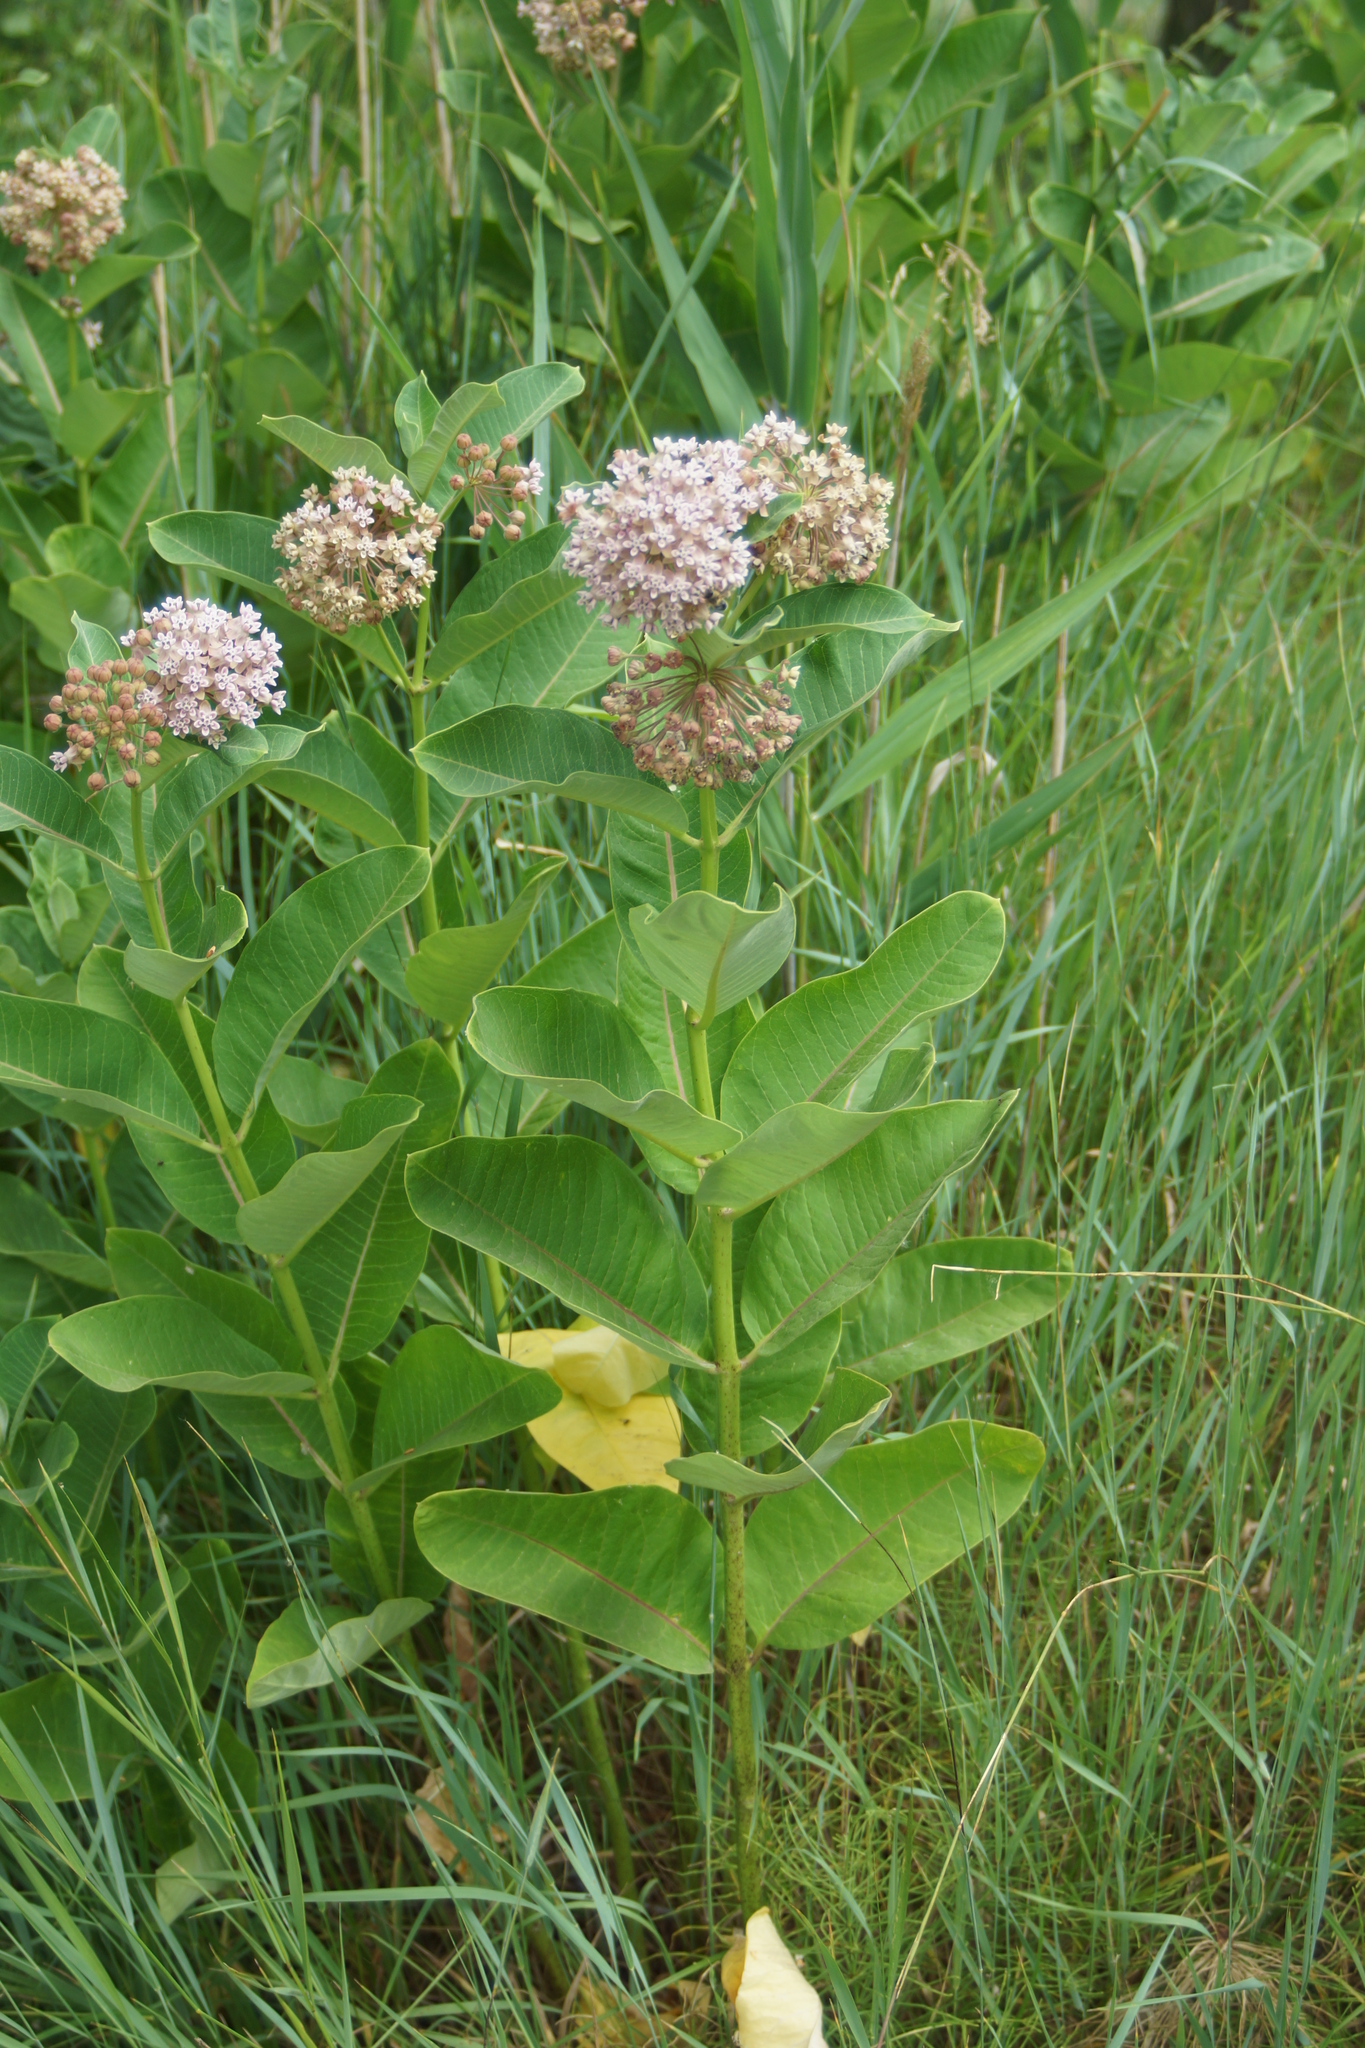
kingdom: Plantae
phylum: Tracheophyta
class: Magnoliopsida
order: Gentianales
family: Apocynaceae
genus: Asclepias
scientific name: Asclepias syriaca
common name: Common milkweed
